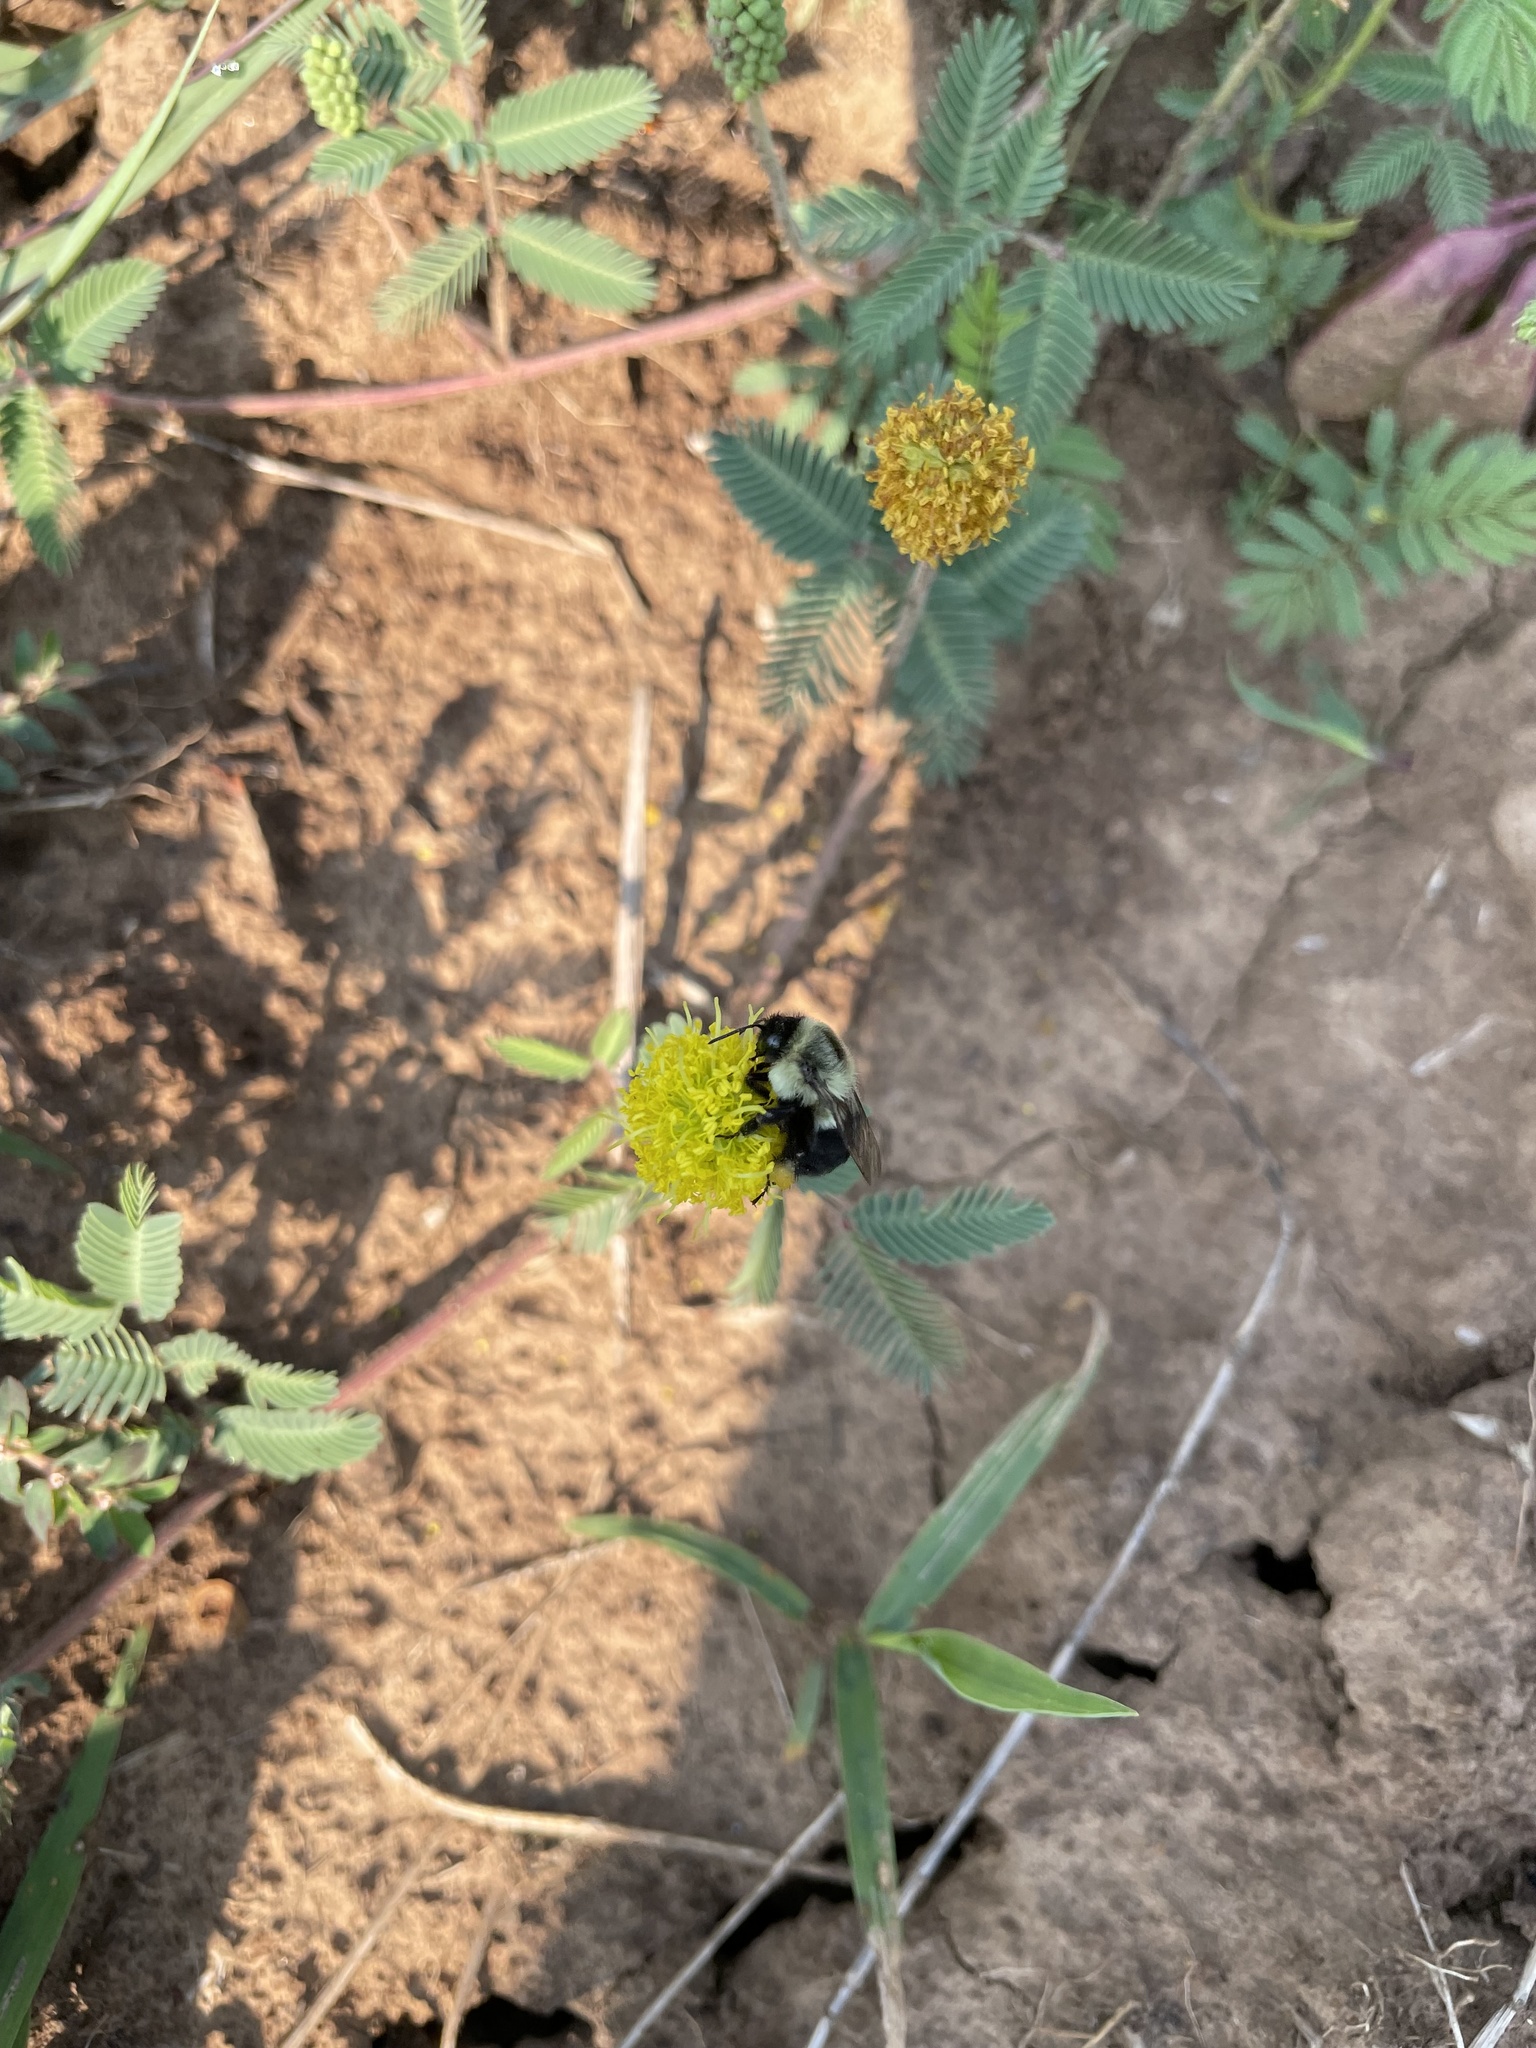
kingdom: Animalia
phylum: Arthropoda
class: Insecta
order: Hymenoptera
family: Apidae
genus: Bombus
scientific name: Bombus impatiens
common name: Common eastern bumble bee
